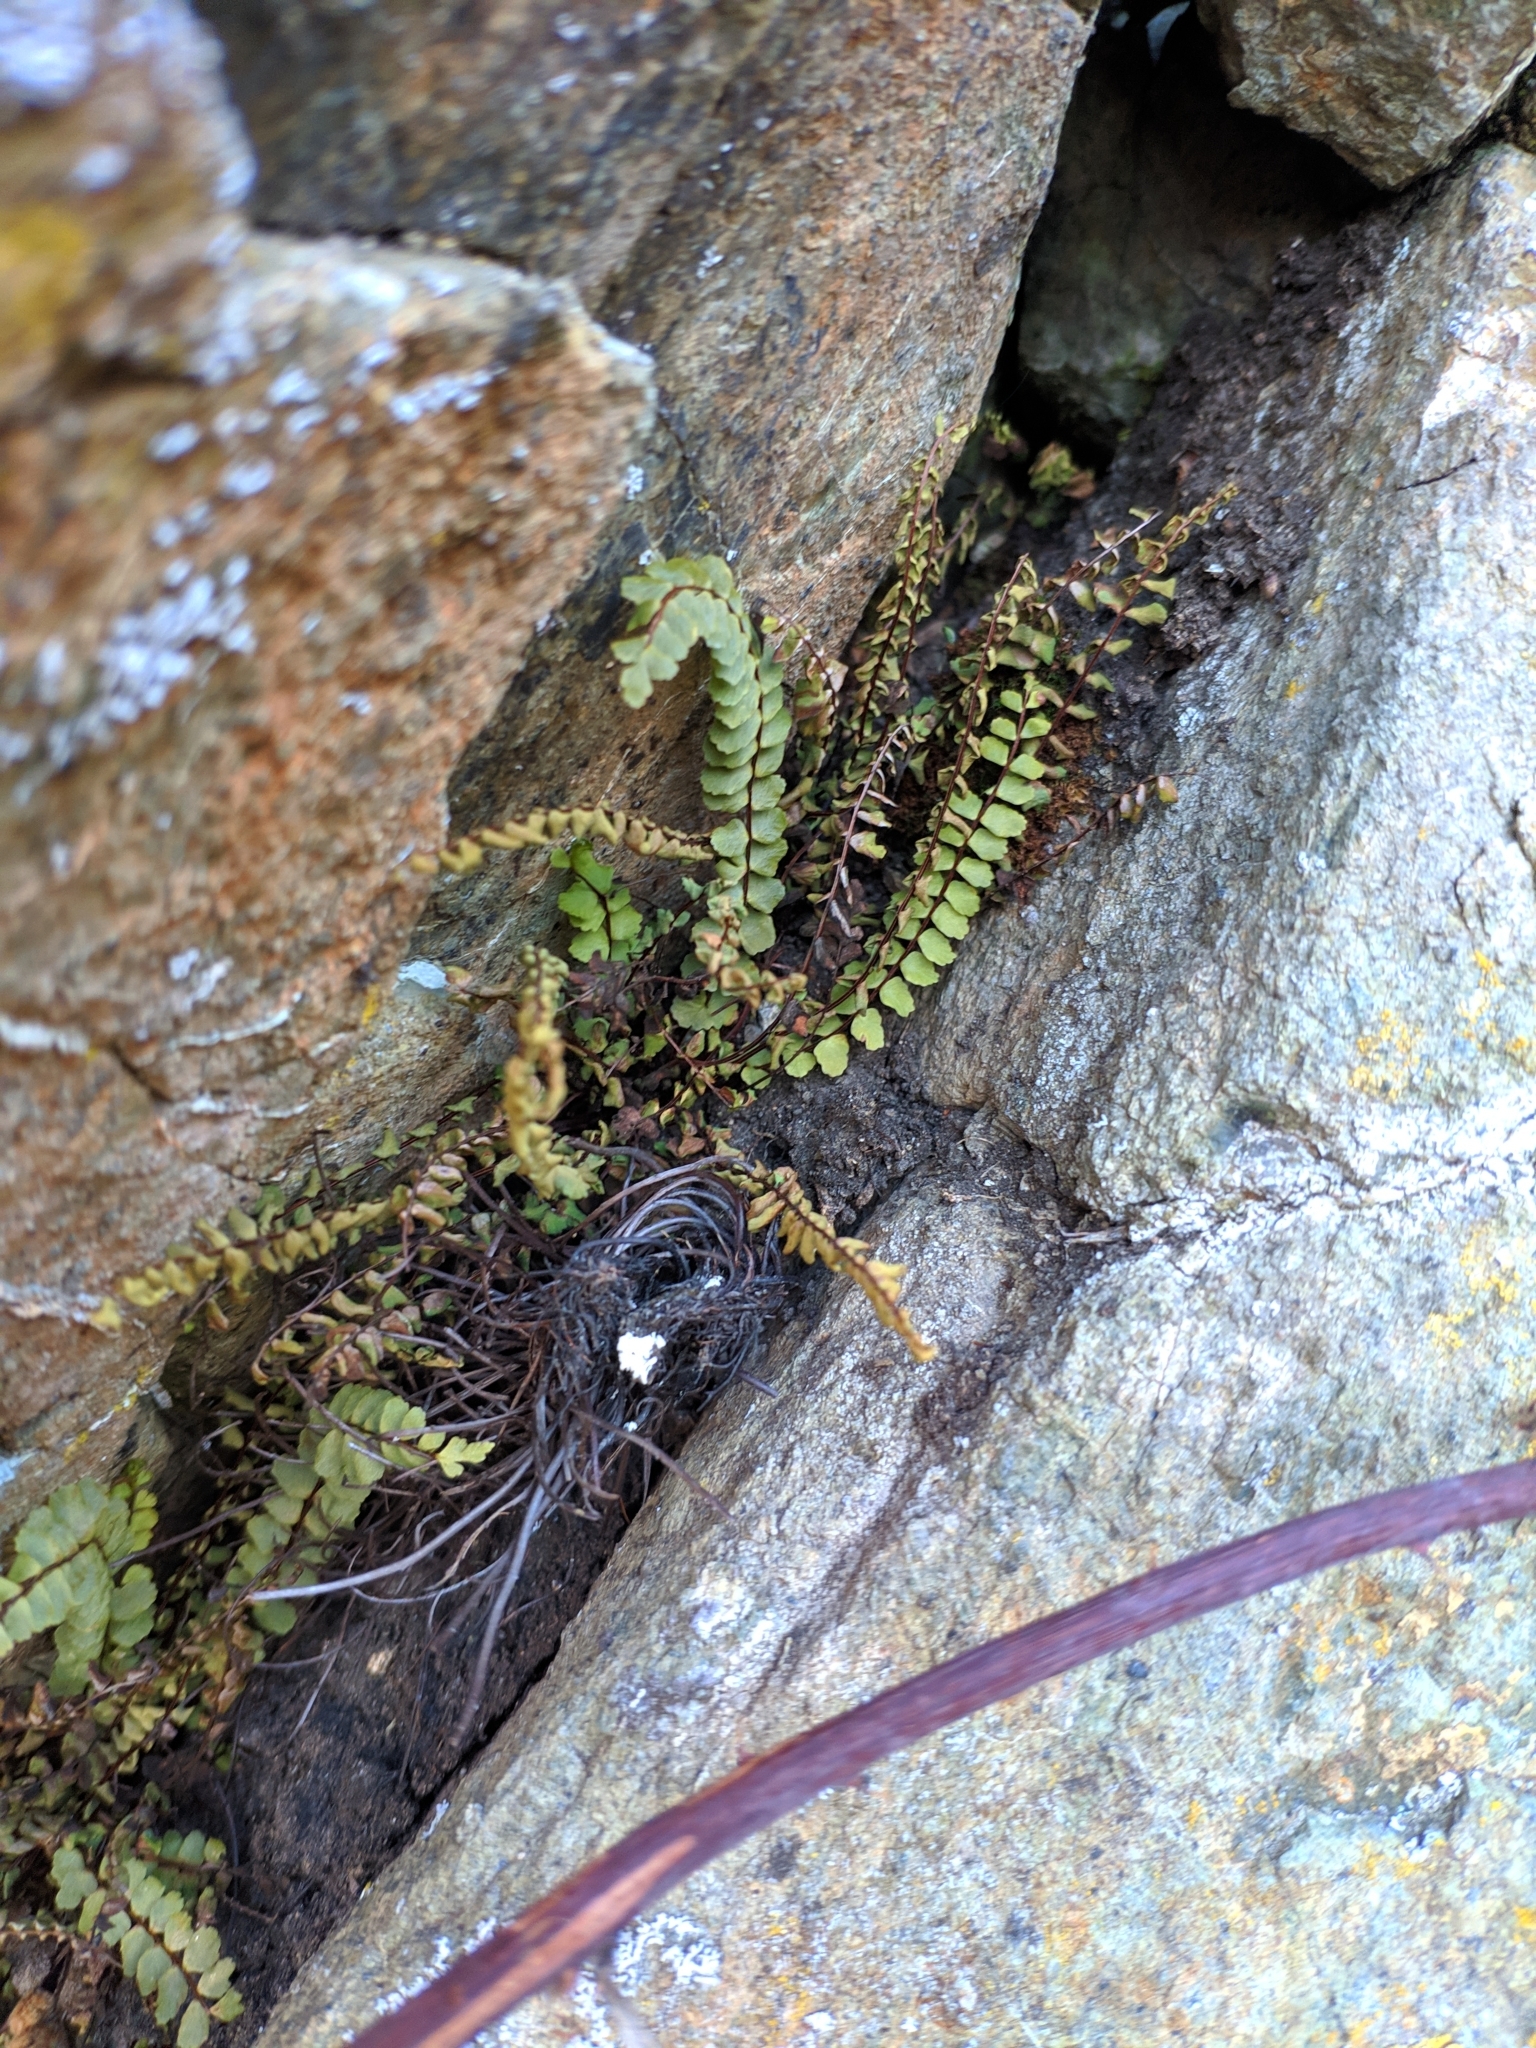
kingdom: Plantae
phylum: Tracheophyta
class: Polypodiopsida
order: Polypodiales
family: Aspleniaceae
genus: Asplenium
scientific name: Asplenium trichomanes
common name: Maidenhair spleenwort
